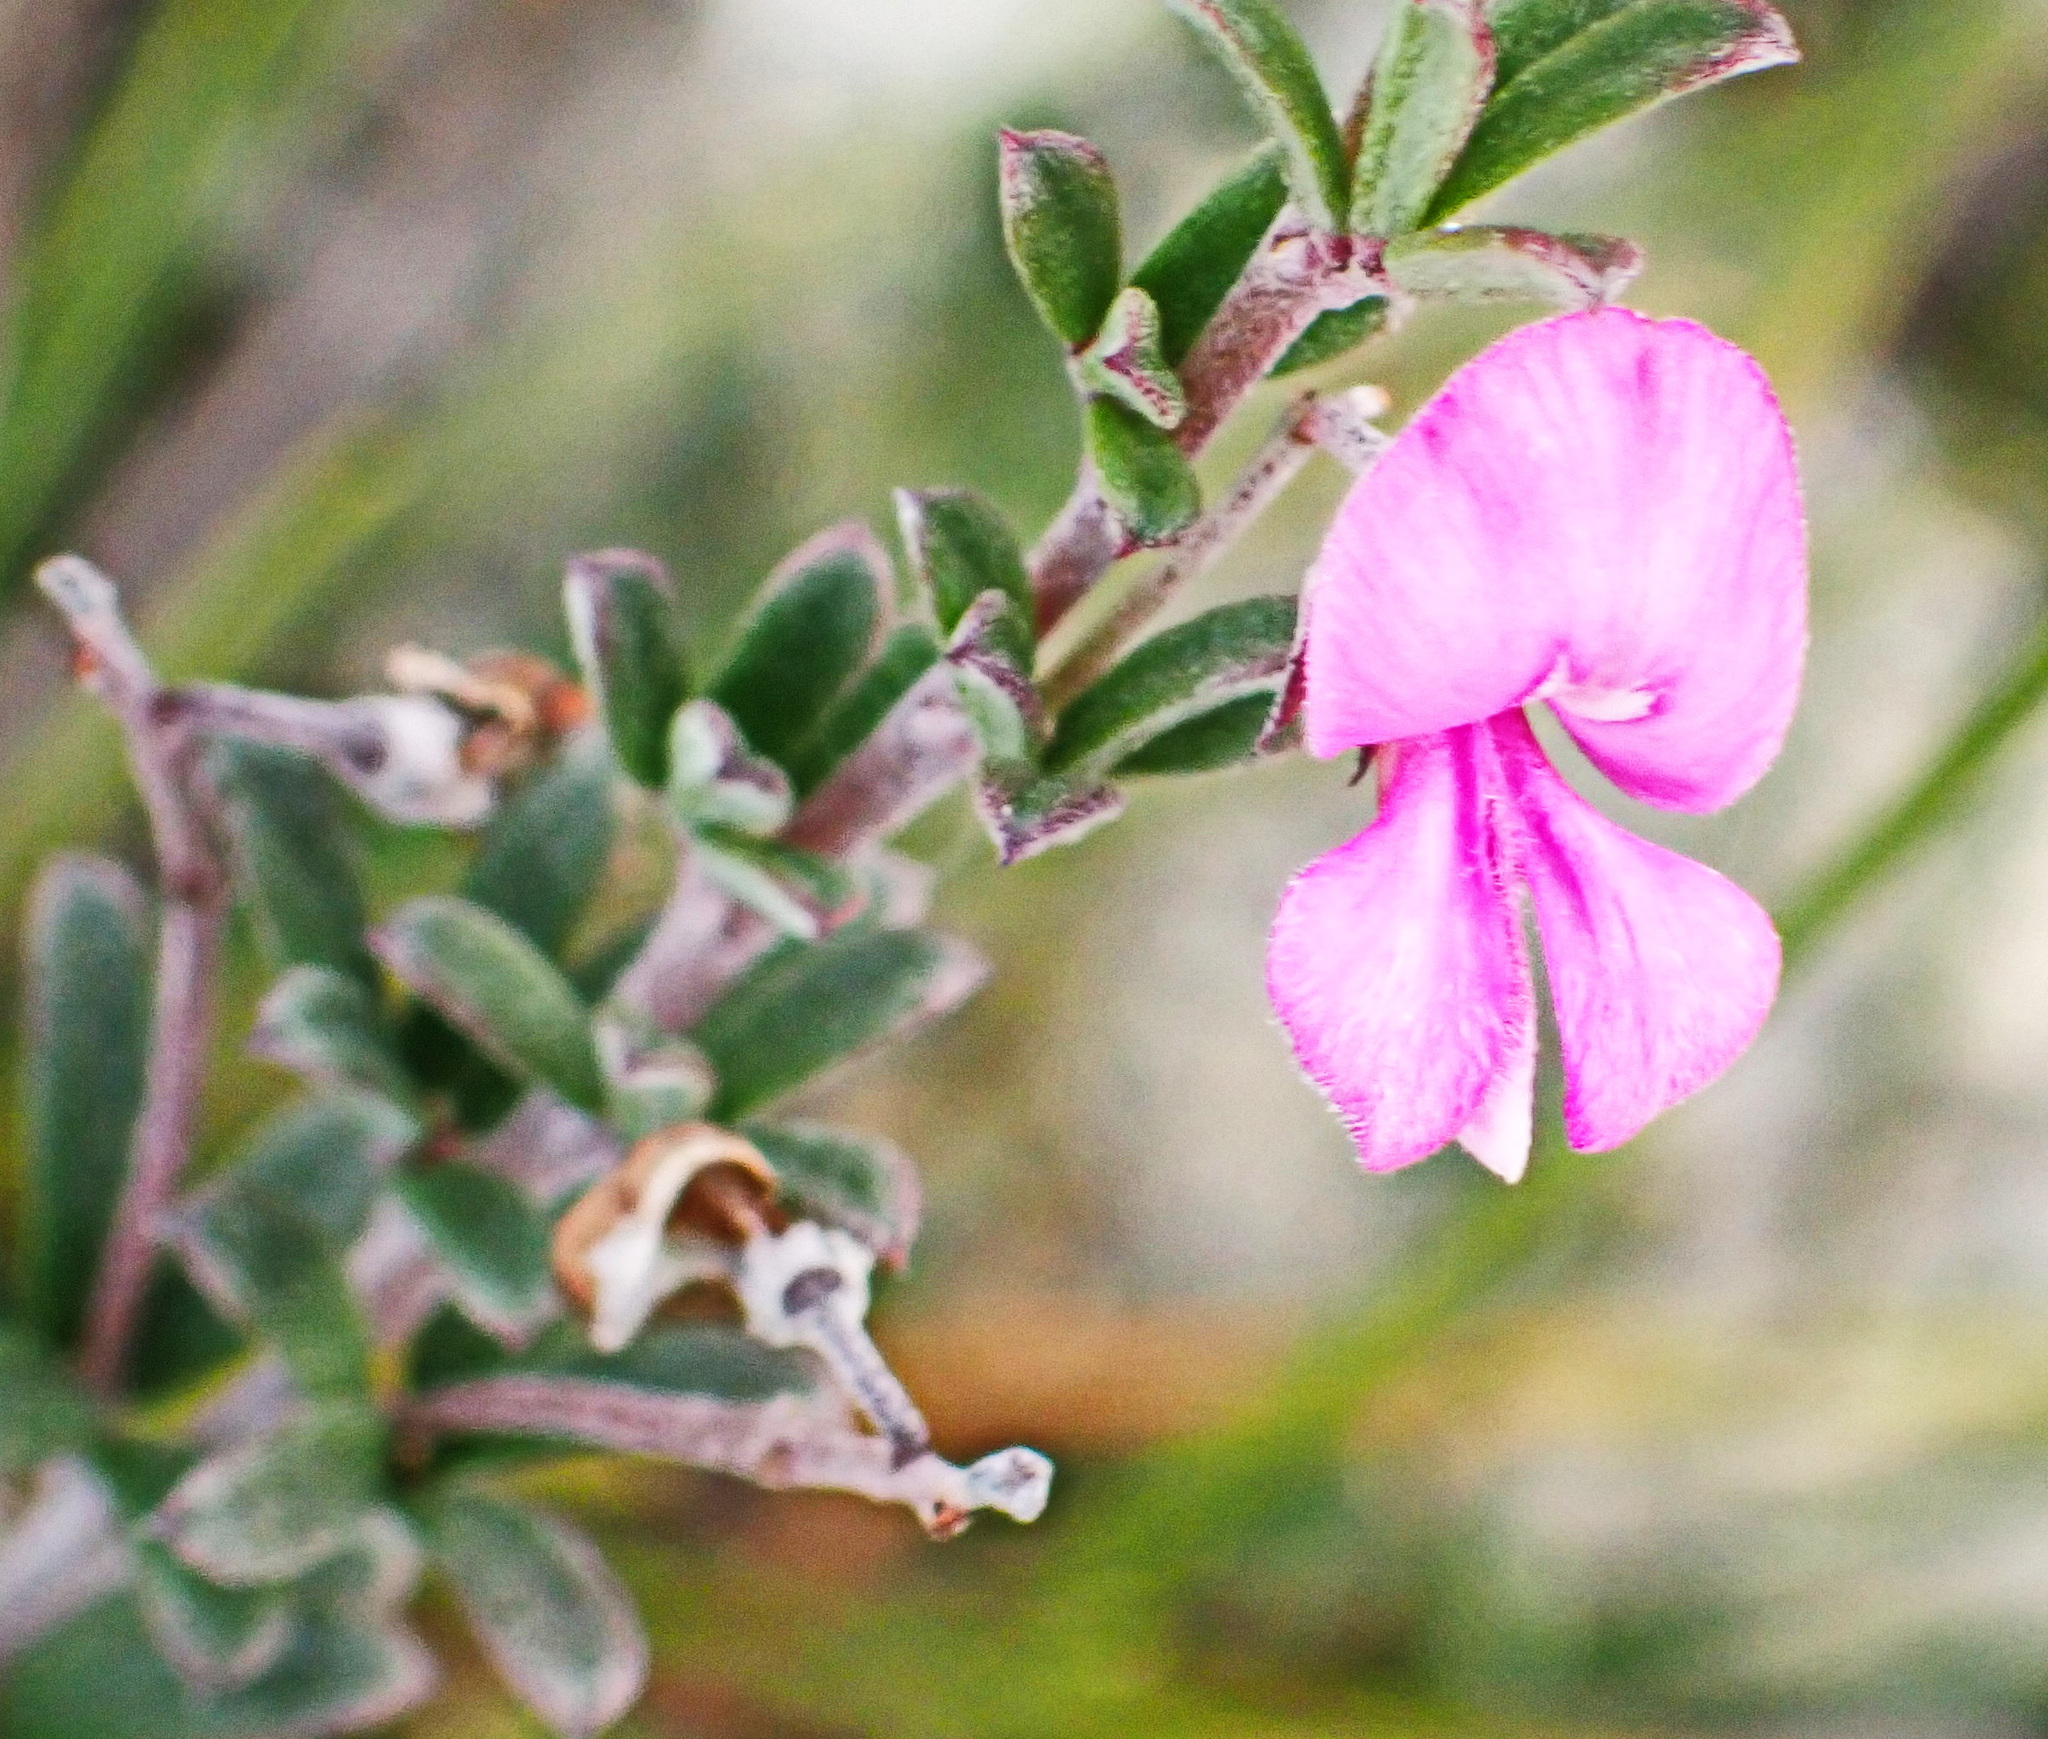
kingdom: Plantae
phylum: Tracheophyta
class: Magnoliopsida
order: Fabales
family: Fabaceae
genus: Indigofera
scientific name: Indigofera
